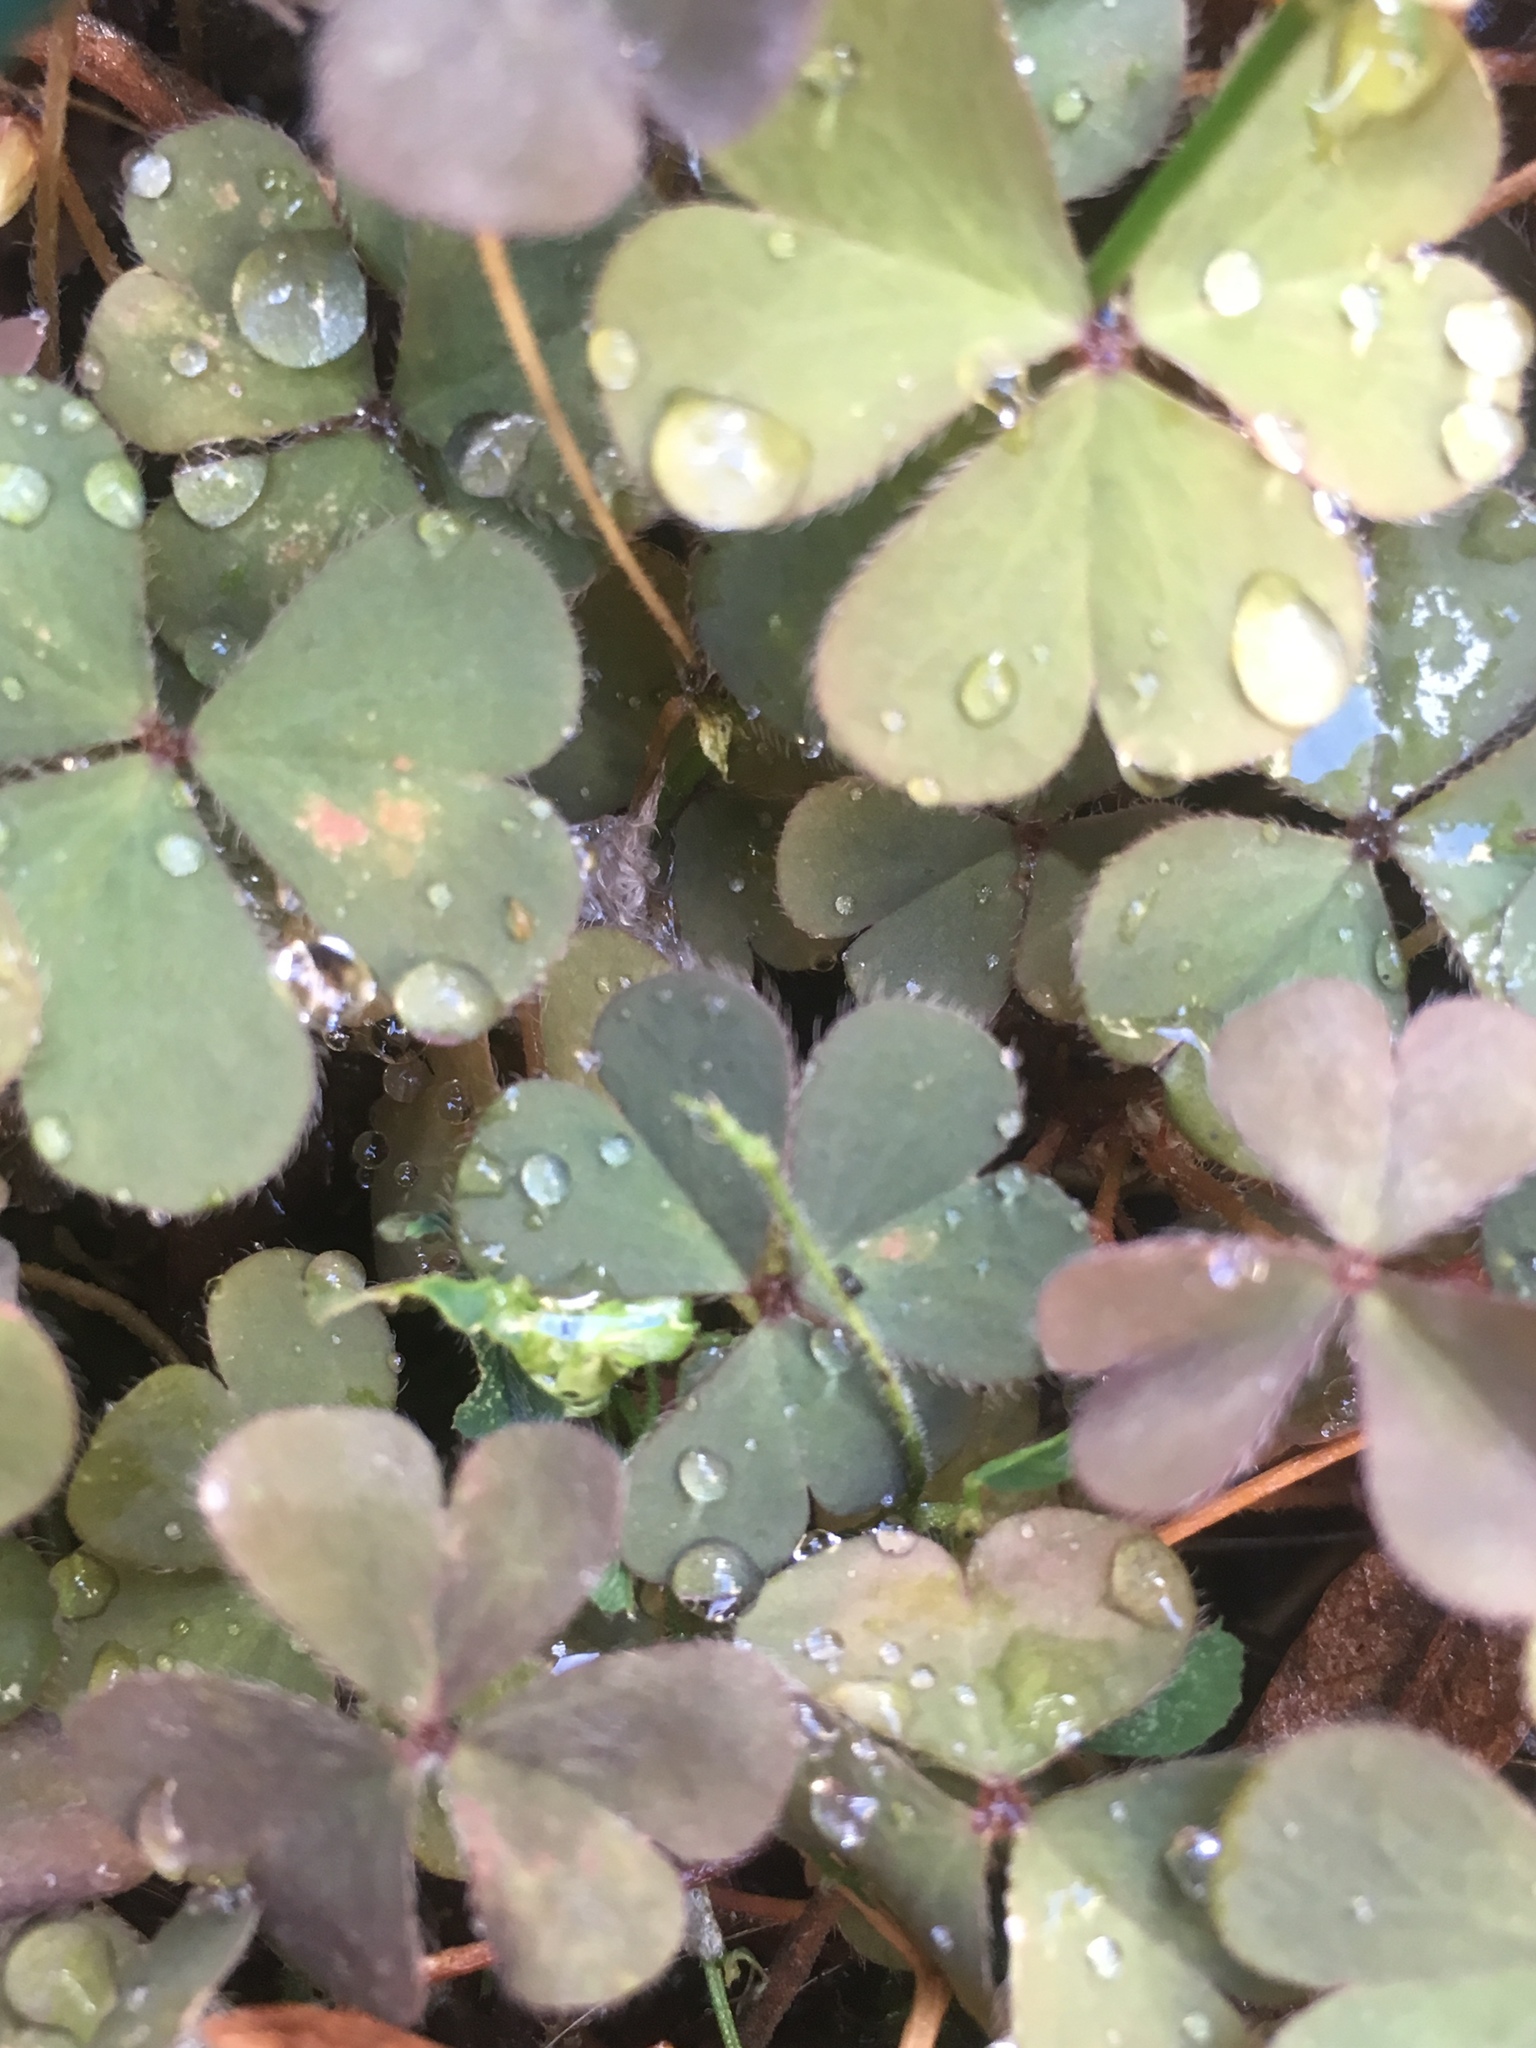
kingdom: Plantae
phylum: Tracheophyta
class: Magnoliopsida
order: Oxalidales
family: Oxalidaceae
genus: Oxalis
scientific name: Oxalis corniculata
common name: Procumbent yellow-sorrel
